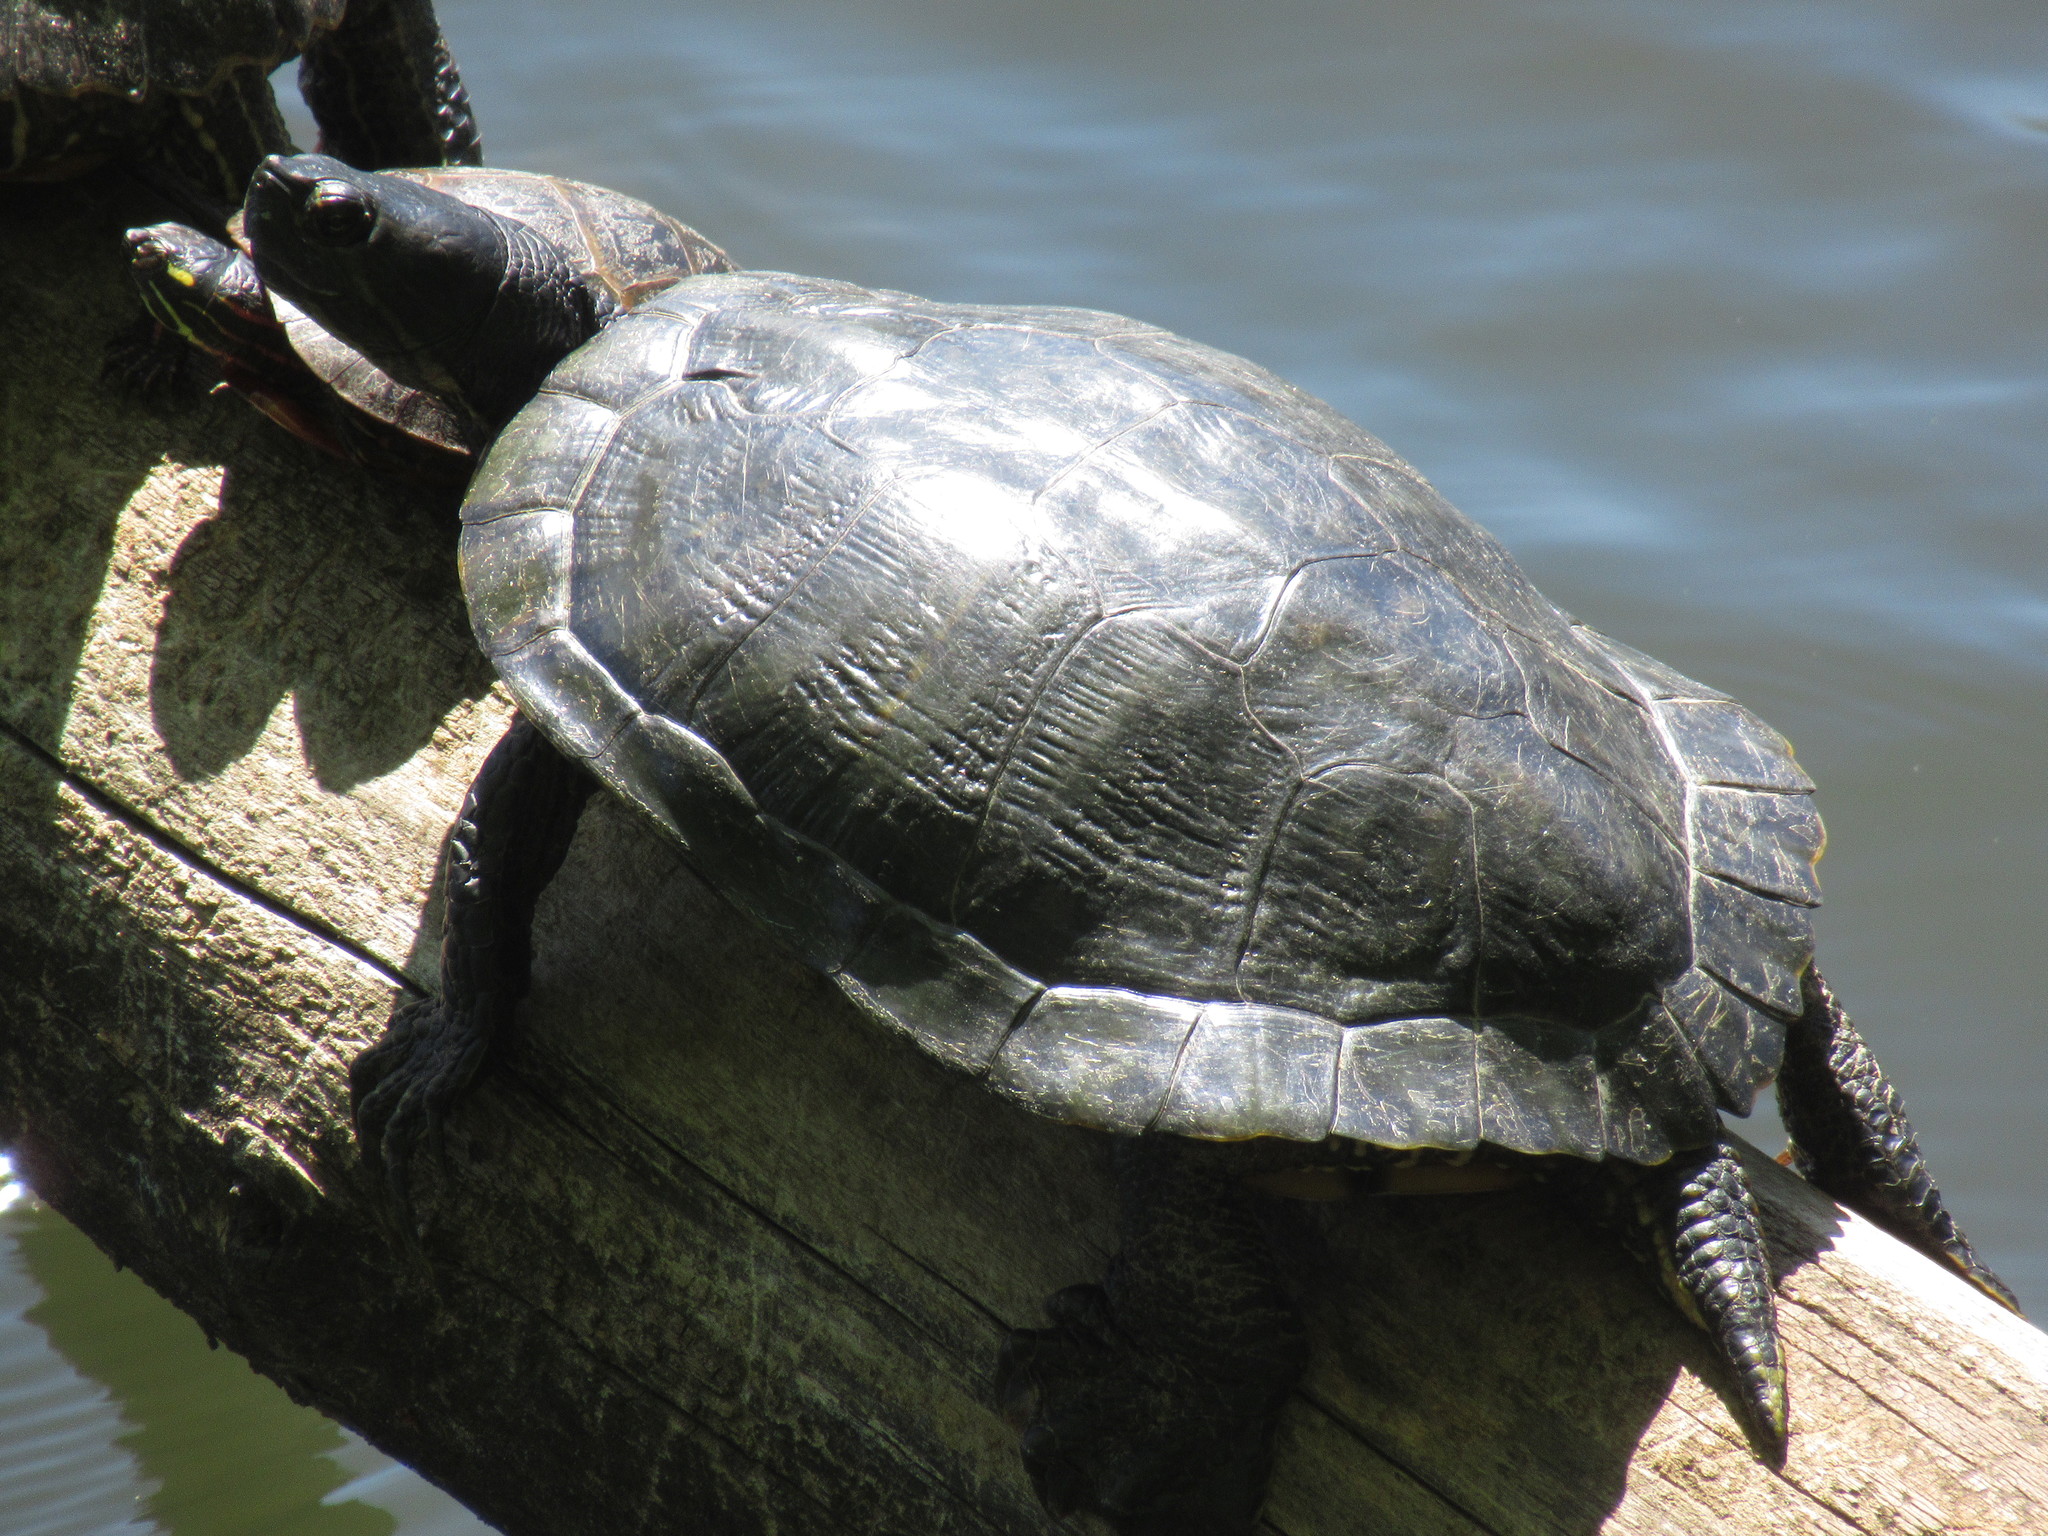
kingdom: Animalia
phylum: Chordata
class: Testudines
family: Emydidae
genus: Trachemys
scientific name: Trachemys scripta
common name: Slider
